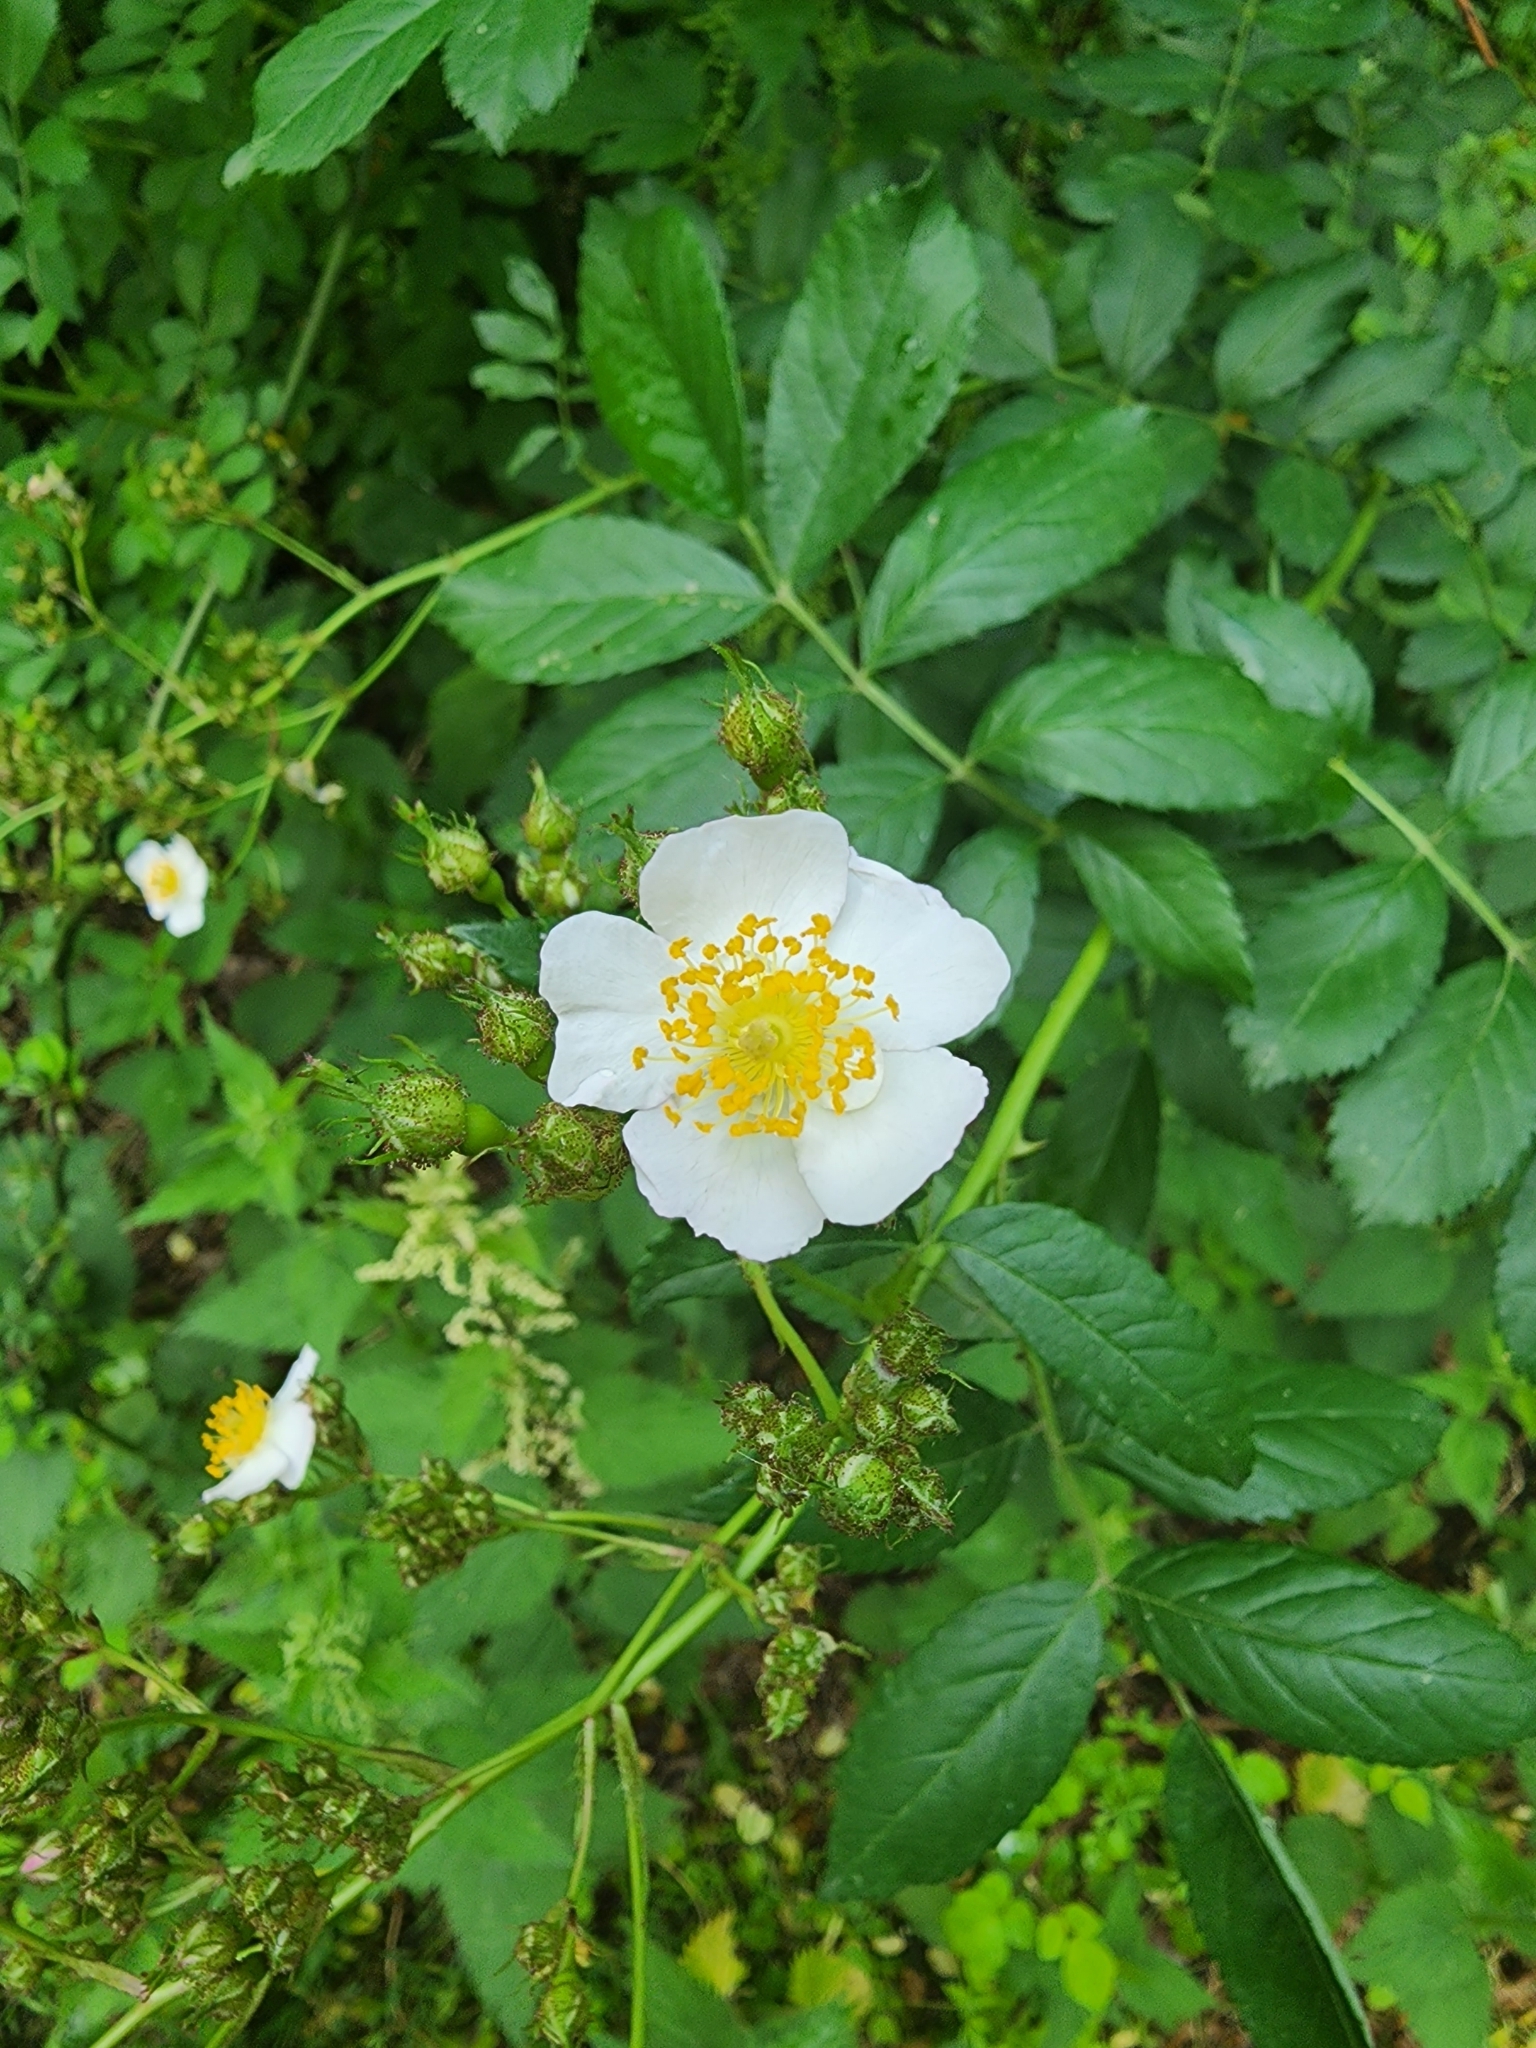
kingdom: Plantae
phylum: Tracheophyta
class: Magnoliopsida
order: Rosales
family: Rosaceae
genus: Rosa
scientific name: Rosa multiflora
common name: Multiflora rose
